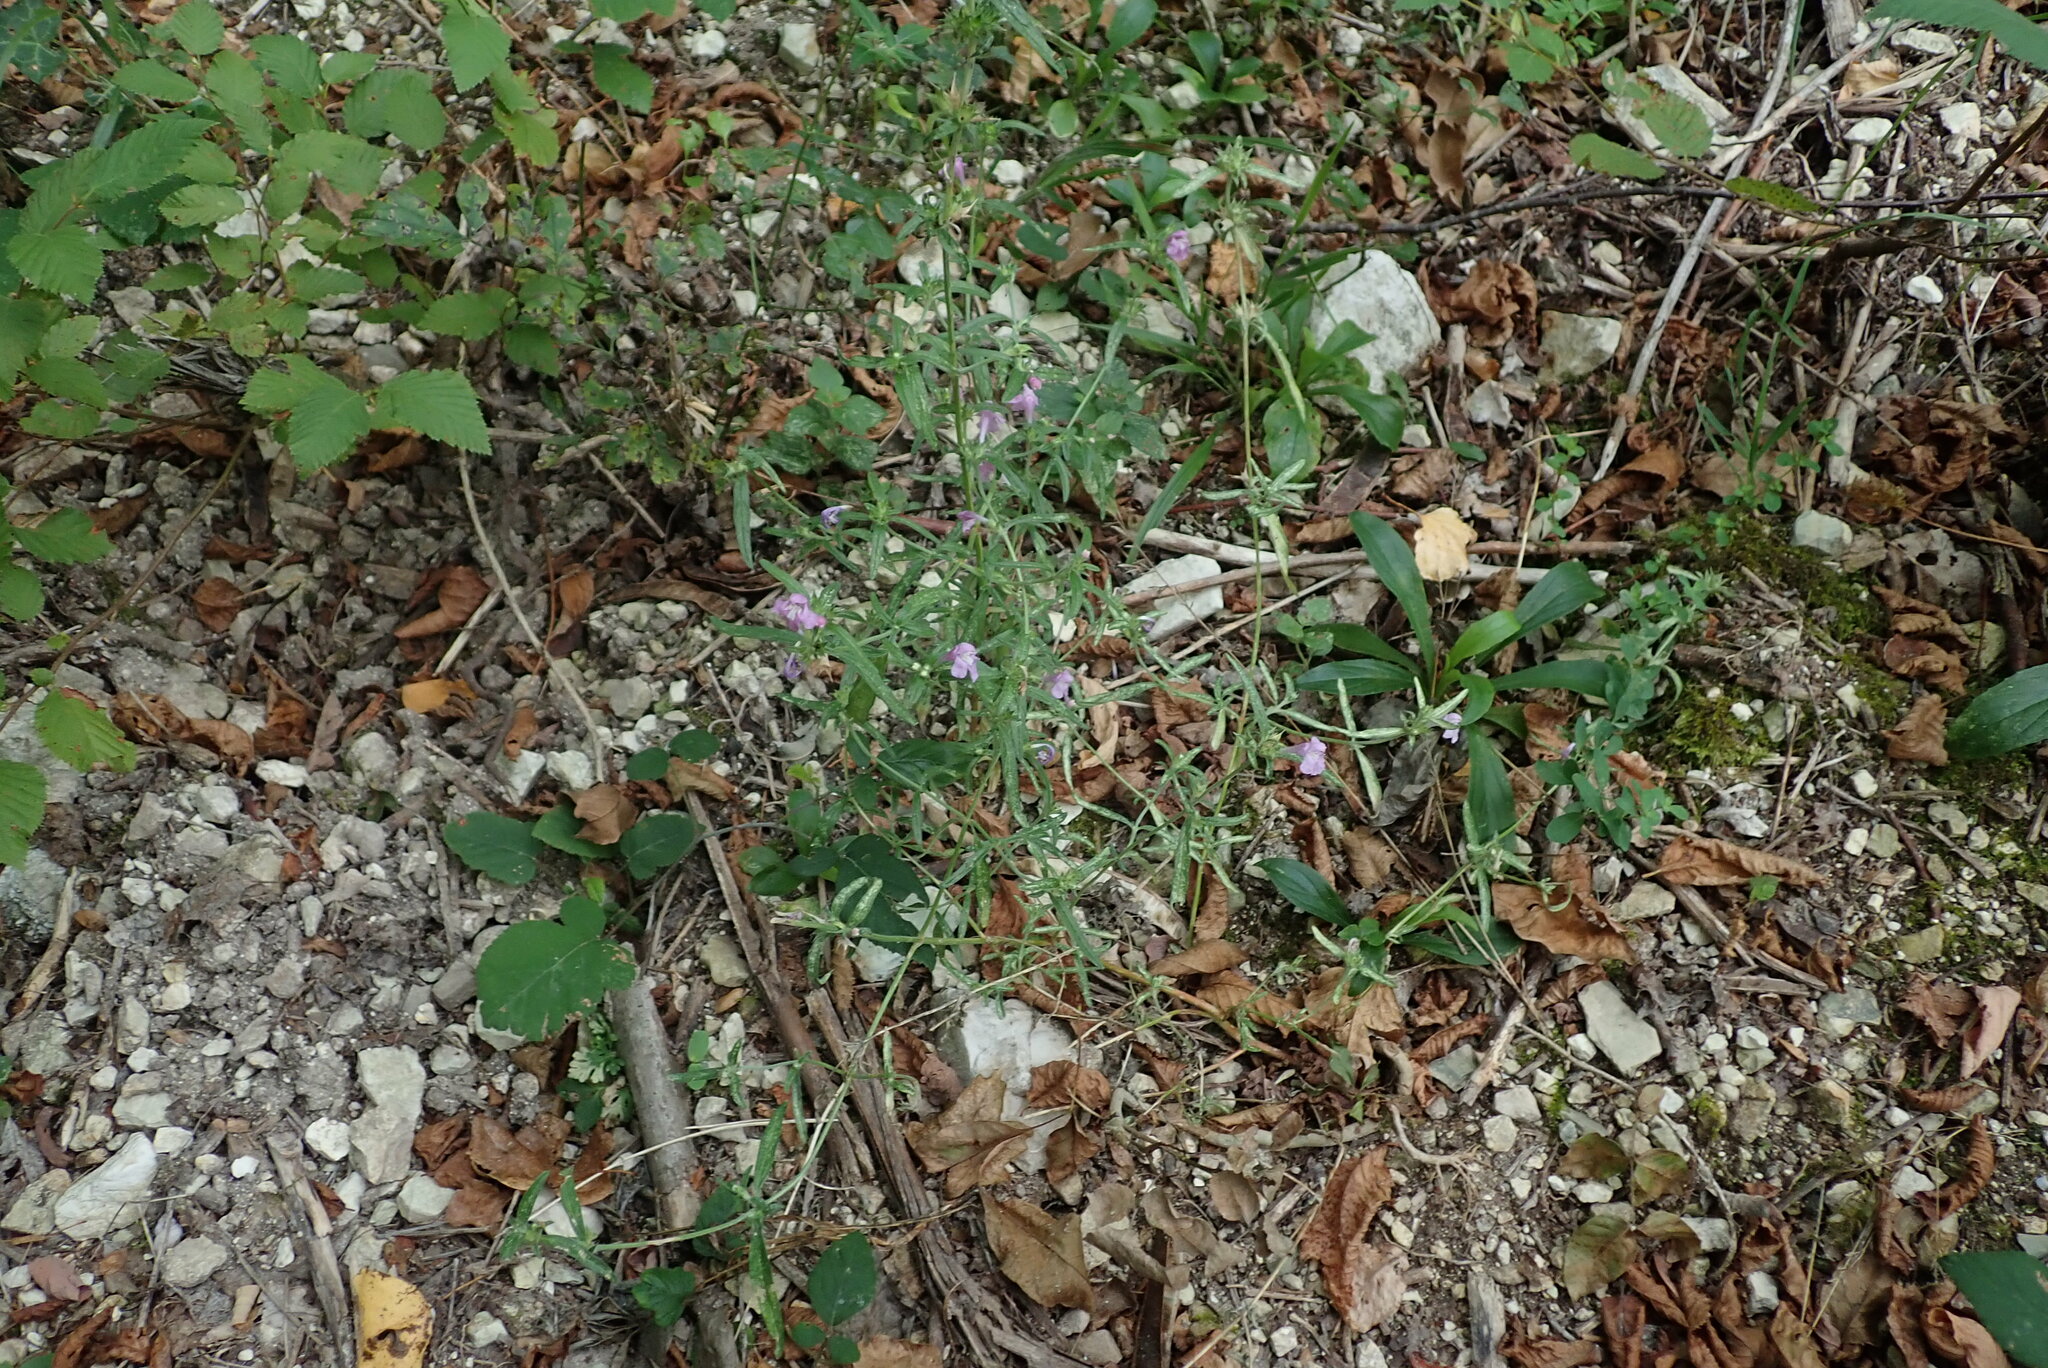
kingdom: Plantae
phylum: Tracheophyta
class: Magnoliopsida
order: Lamiales
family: Lamiaceae
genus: Galeopsis
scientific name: Galeopsis angustifolia
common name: Red hemp-nettle
